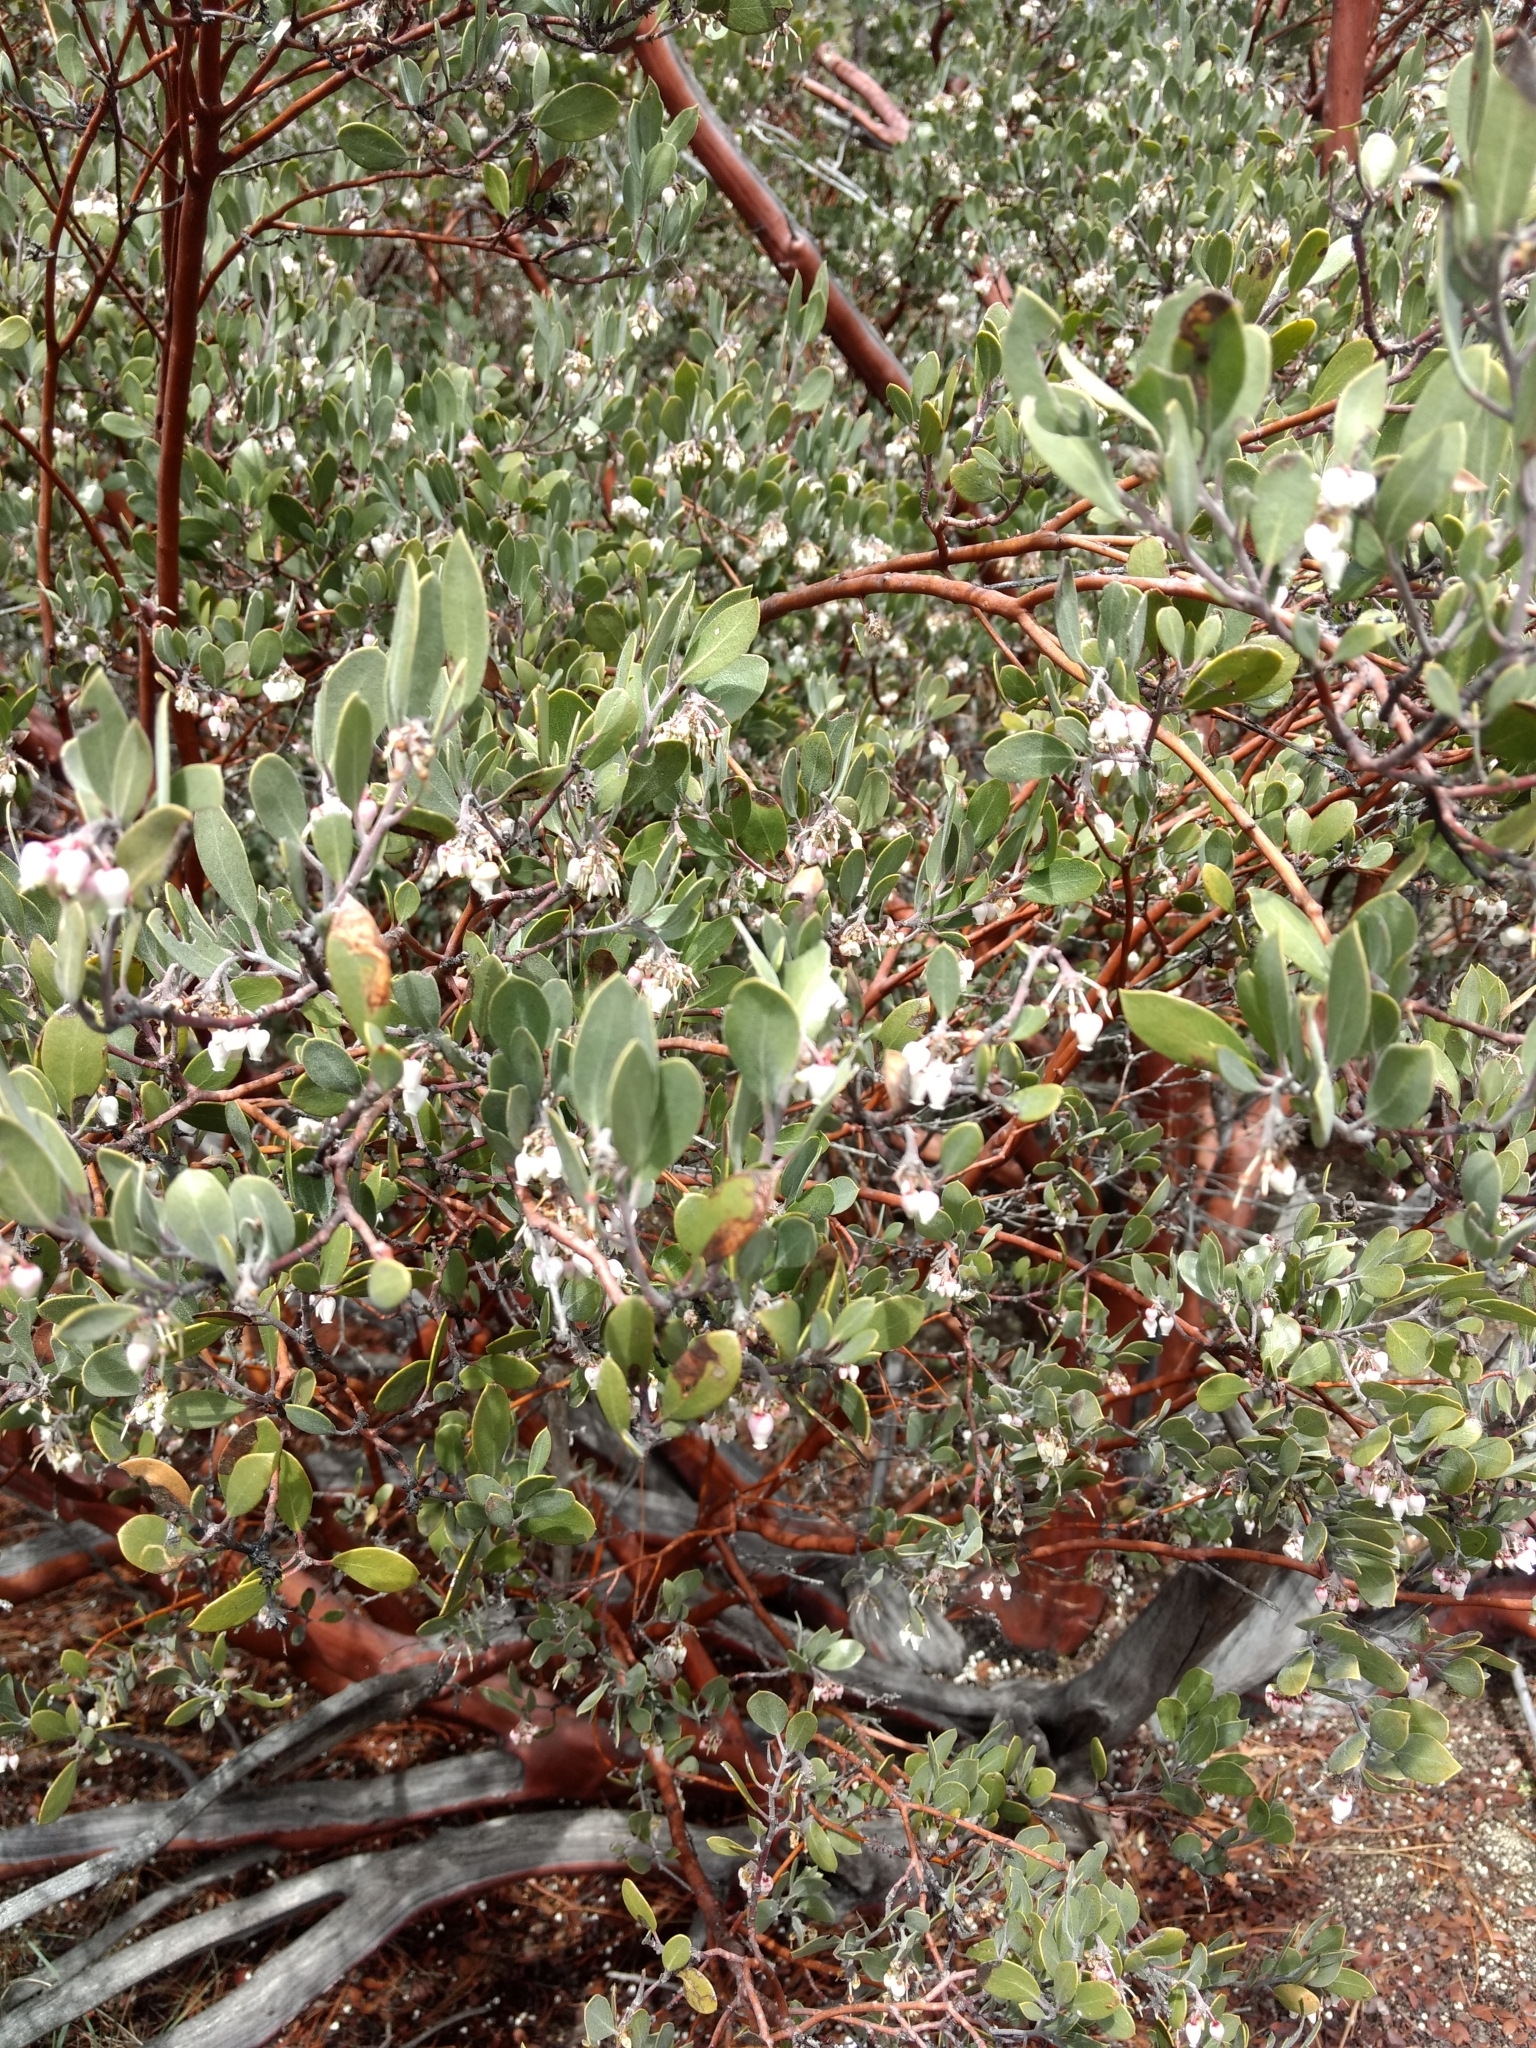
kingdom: Plantae
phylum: Tracheophyta
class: Magnoliopsida
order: Ericales
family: Ericaceae
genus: Arctostaphylos
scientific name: Arctostaphylos pungens
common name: Mexican manzanita
